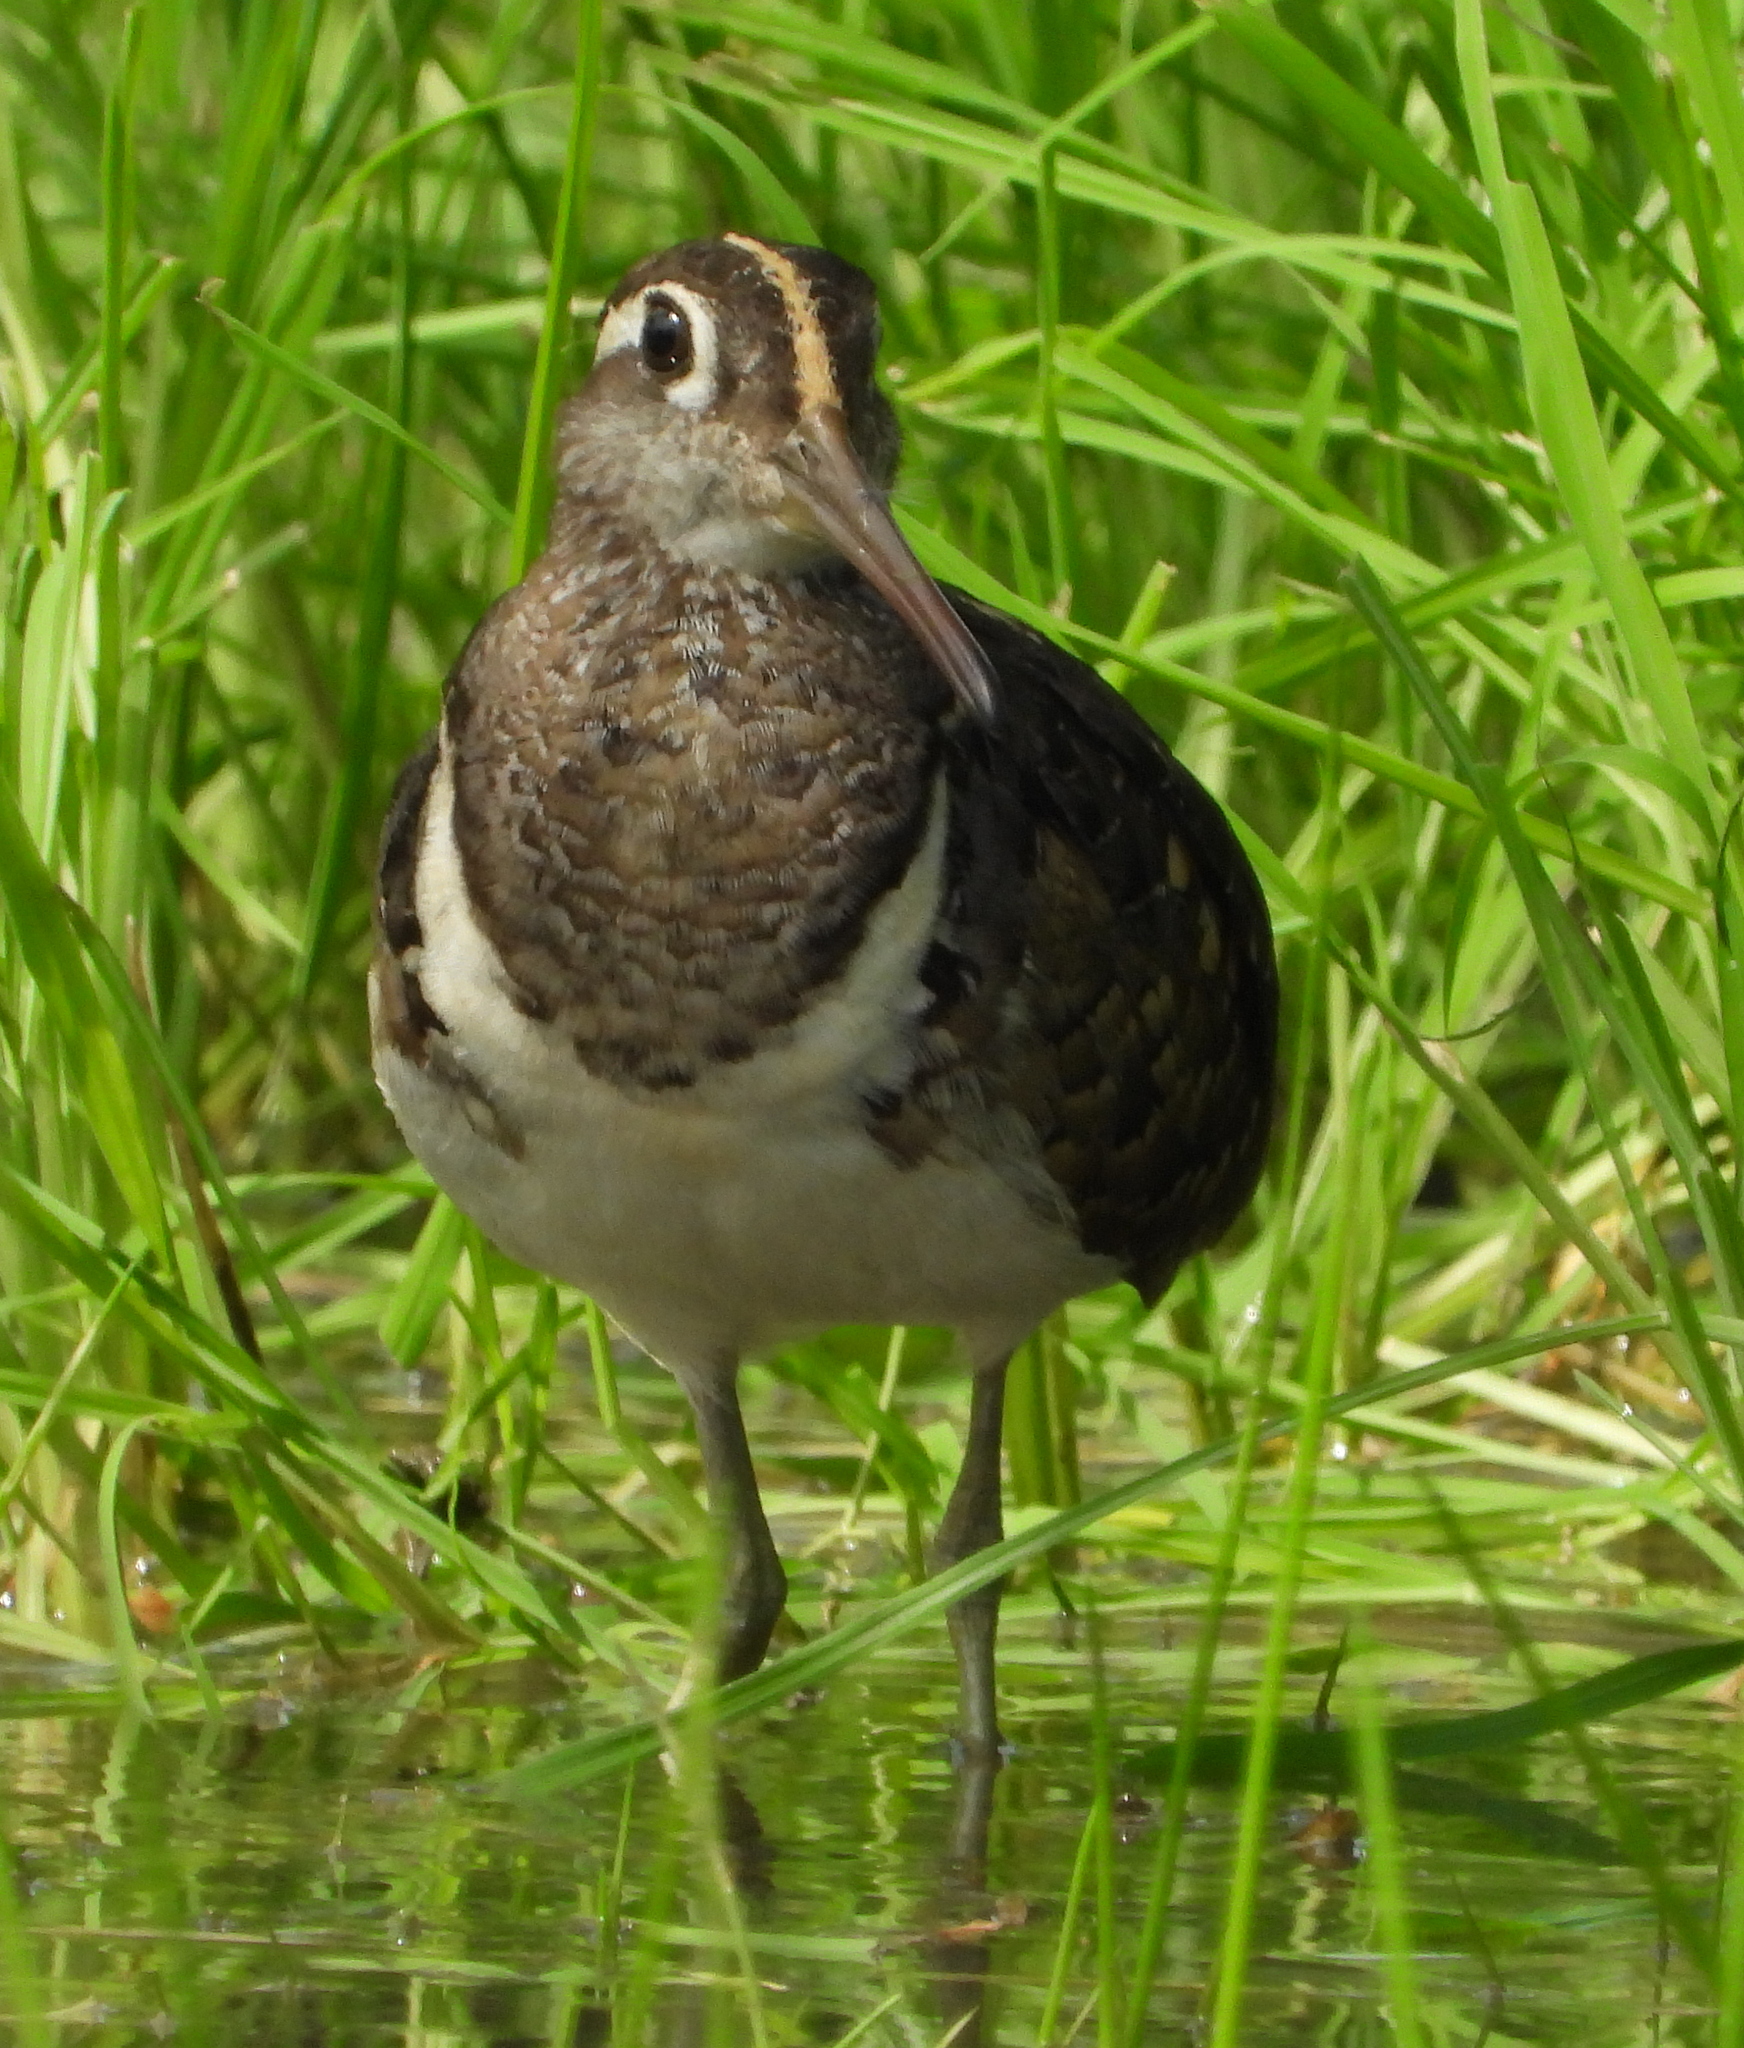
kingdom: Animalia
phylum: Chordata
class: Aves
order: Charadriiformes
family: Rostratulidae
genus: Rostratula
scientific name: Rostratula benghalensis
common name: Greater painted-snipe
